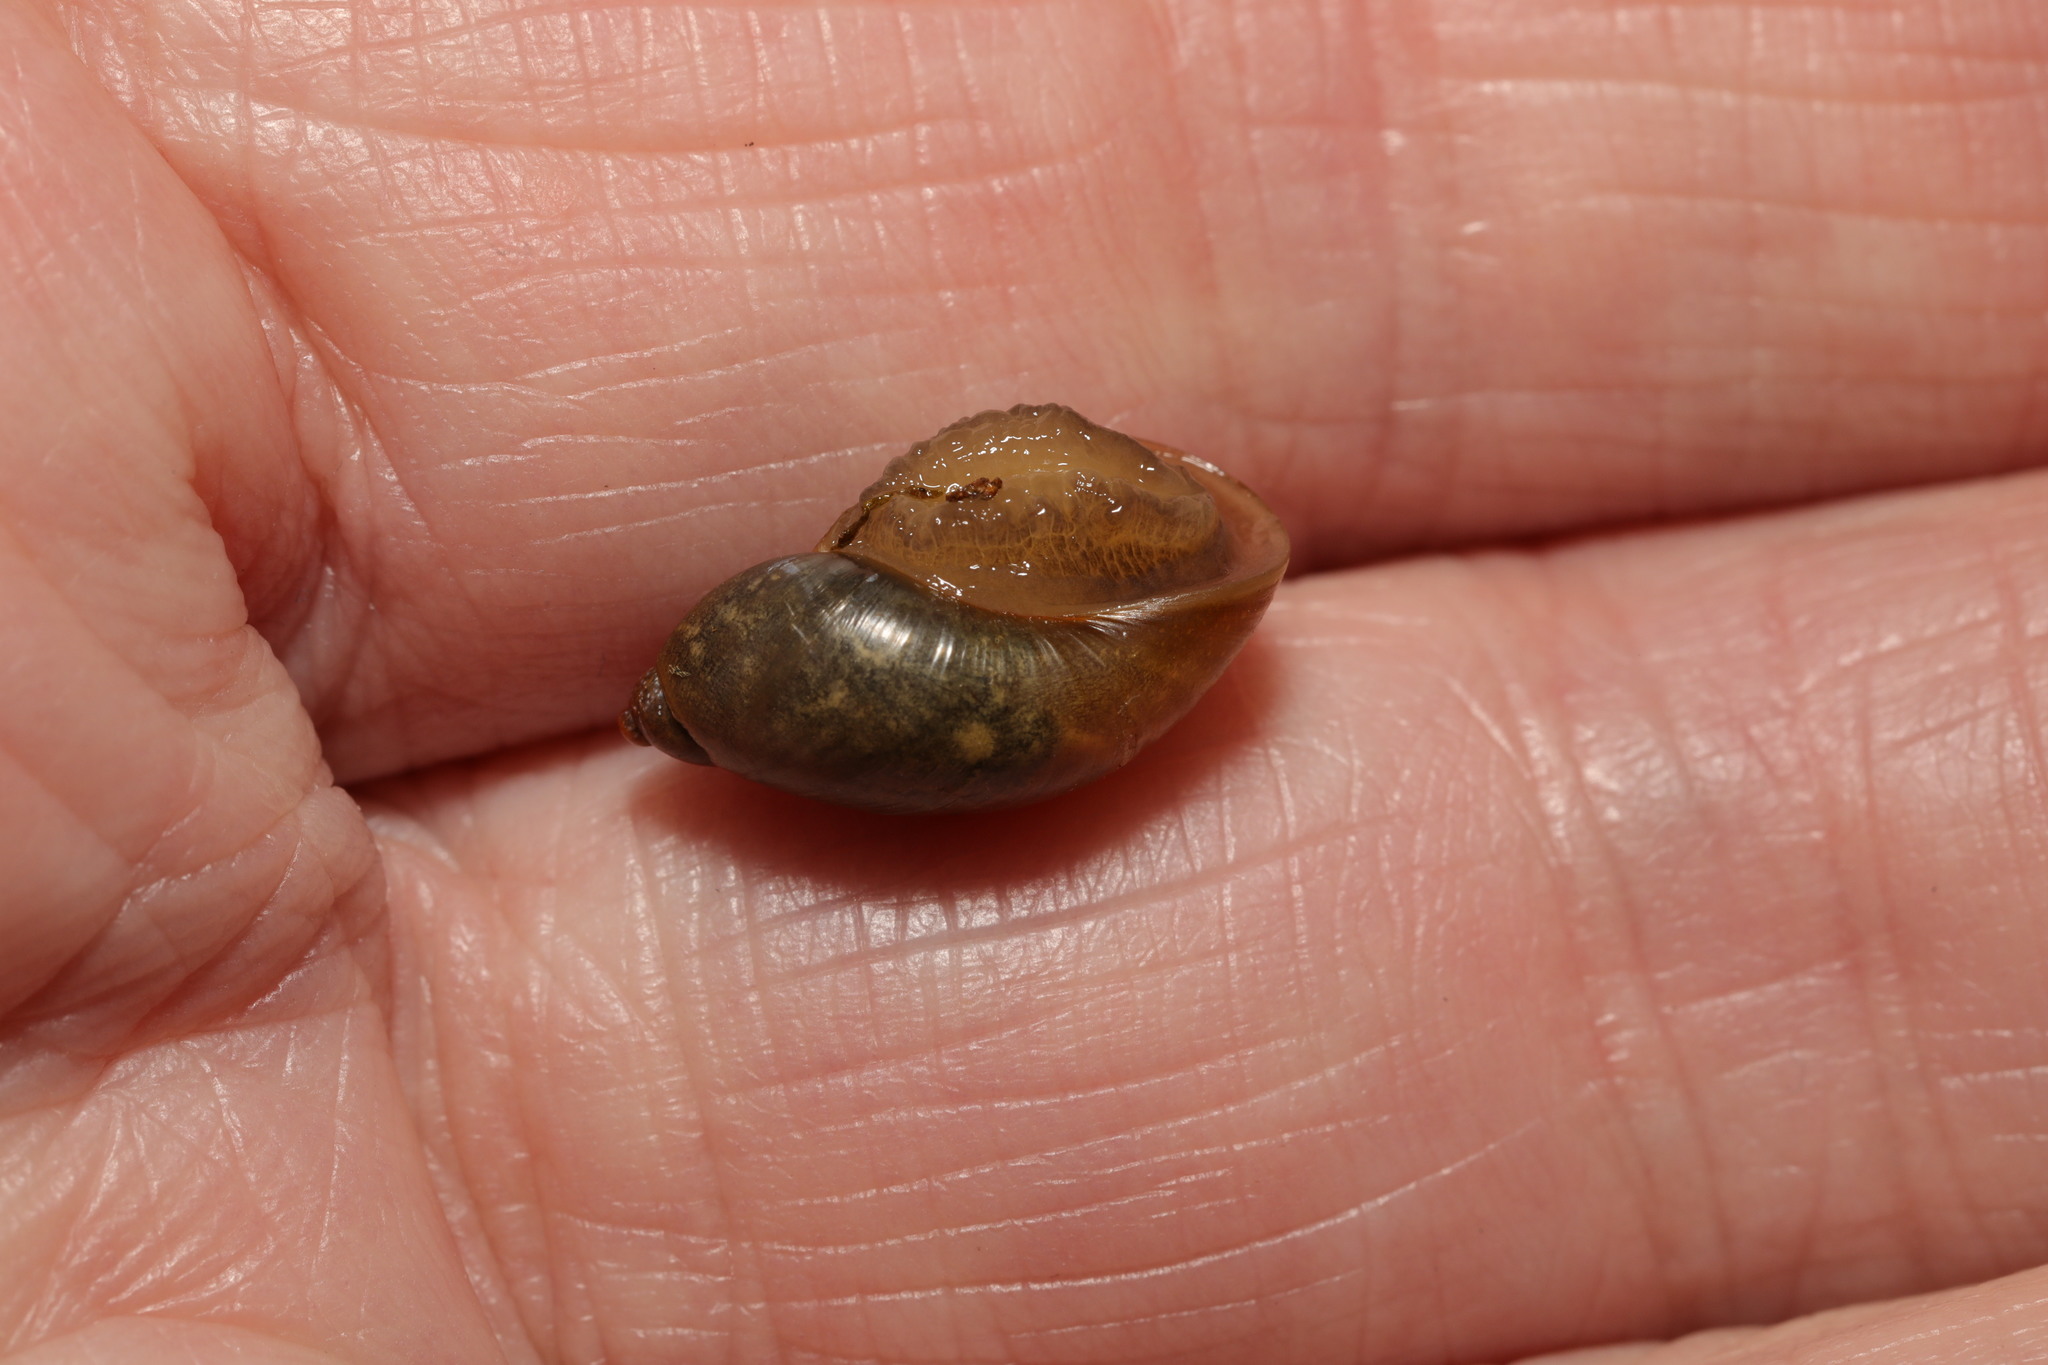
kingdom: Animalia
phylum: Mollusca
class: Gastropoda
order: Stylommatophora
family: Succineidae
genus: Succinea
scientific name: Succinea putris
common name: European ambersnail
